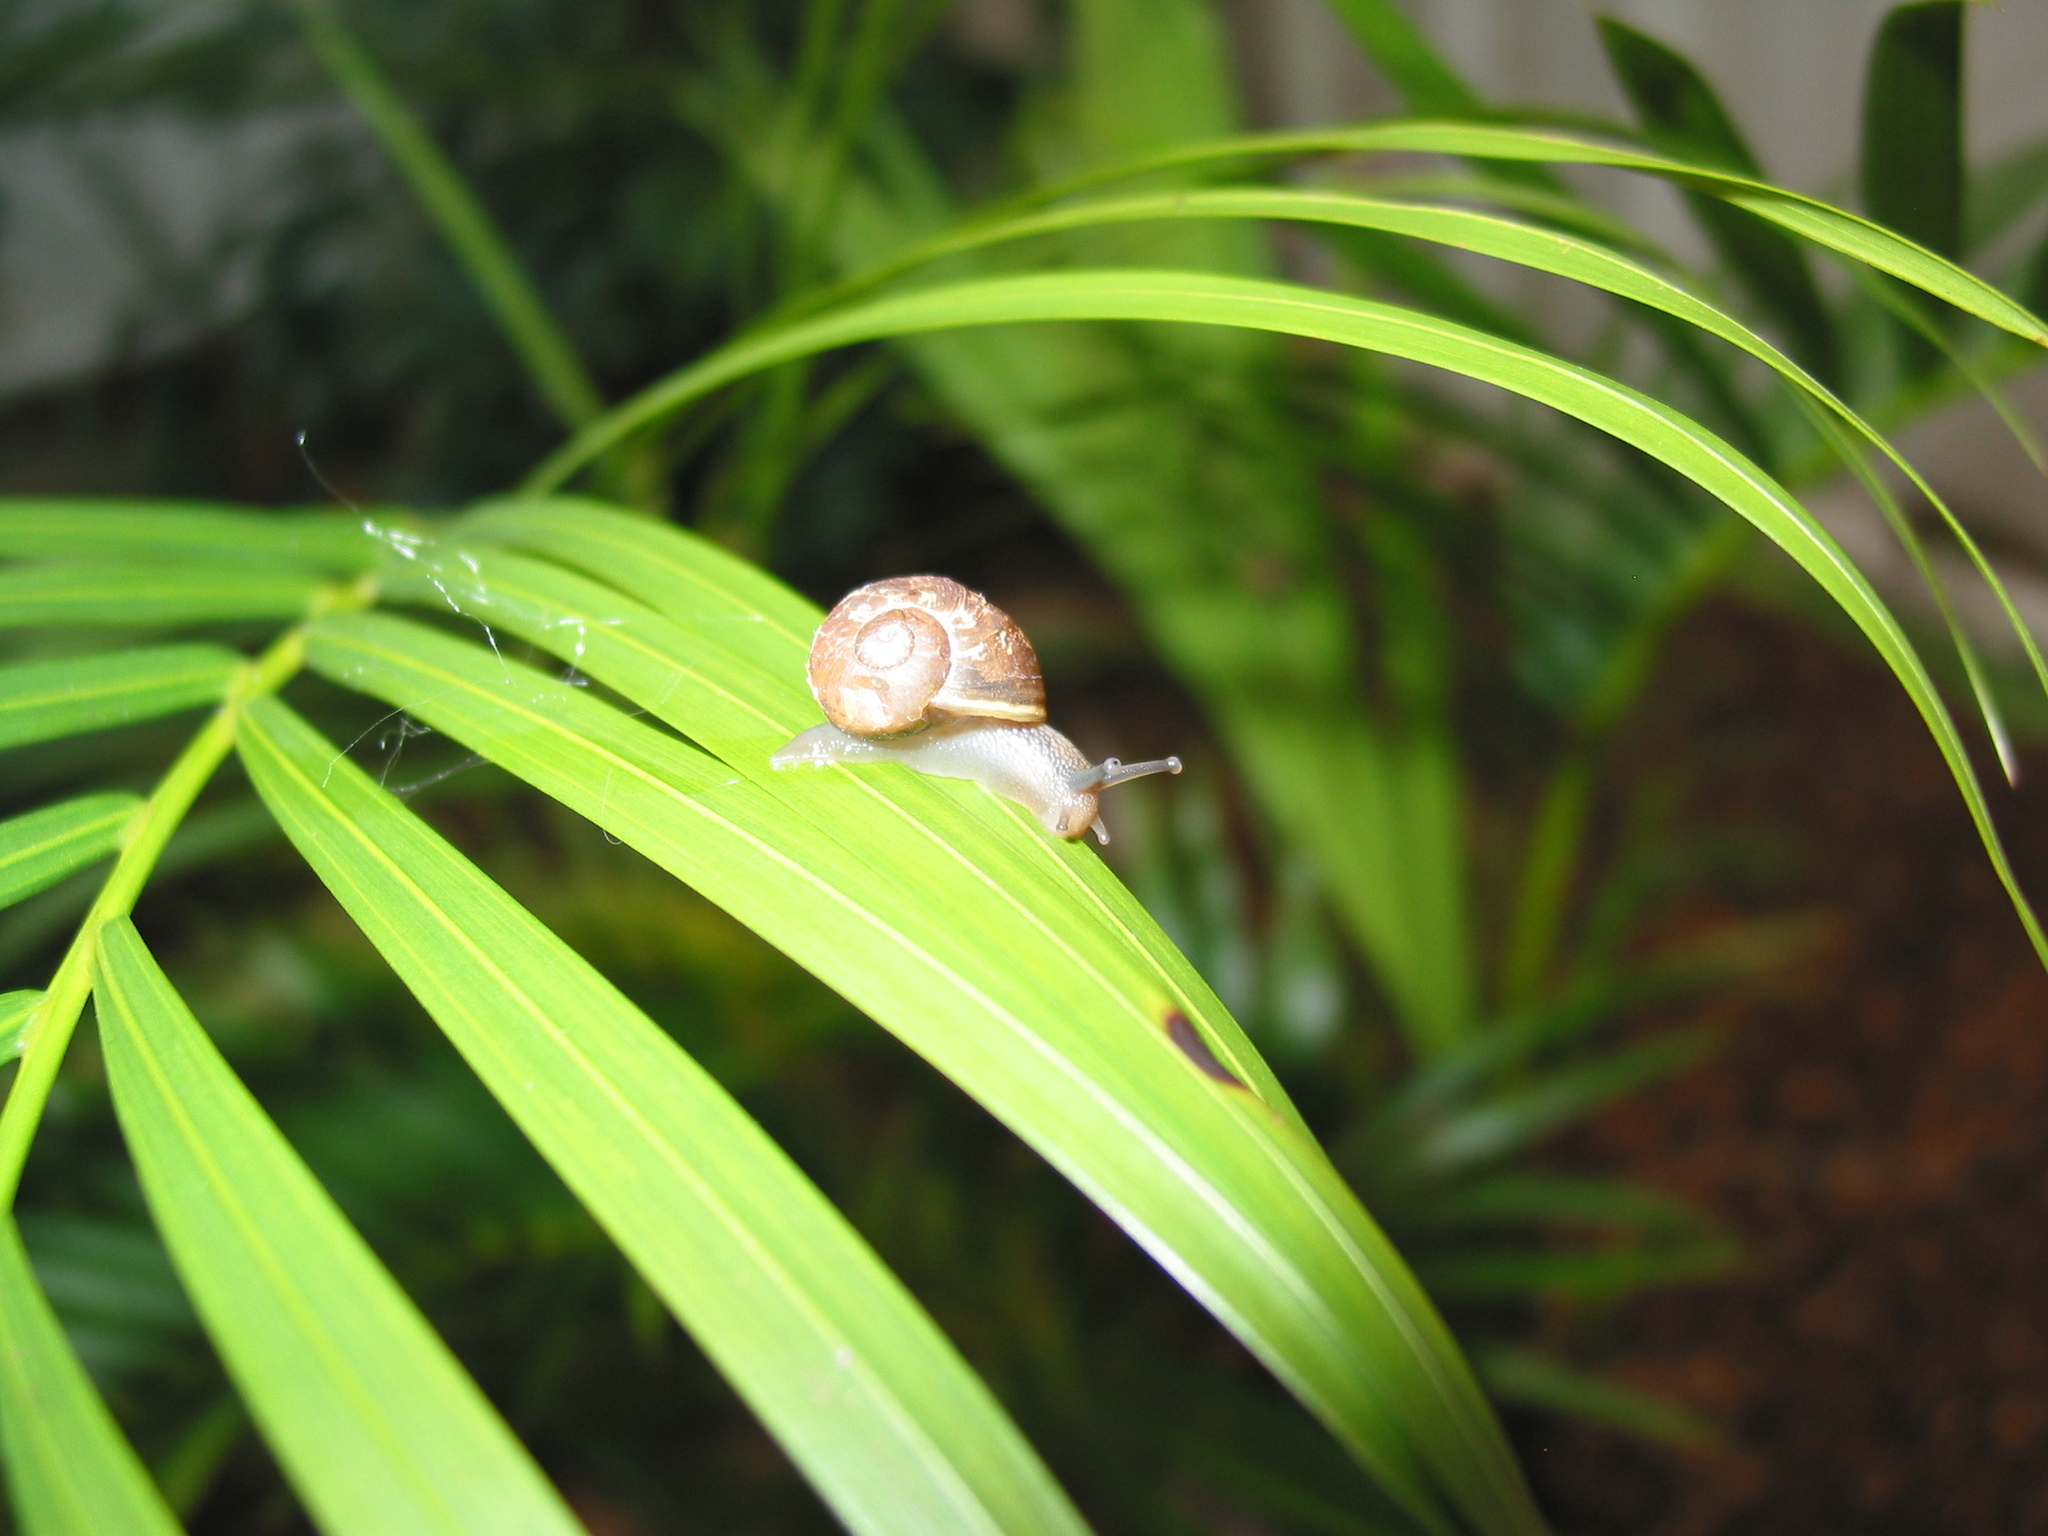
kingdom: Animalia
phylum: Mollusca
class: Gastropoda
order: Stylommatophora
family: Helicidae
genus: Cornu
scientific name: Cornu aspersum
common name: Brown garden snail
